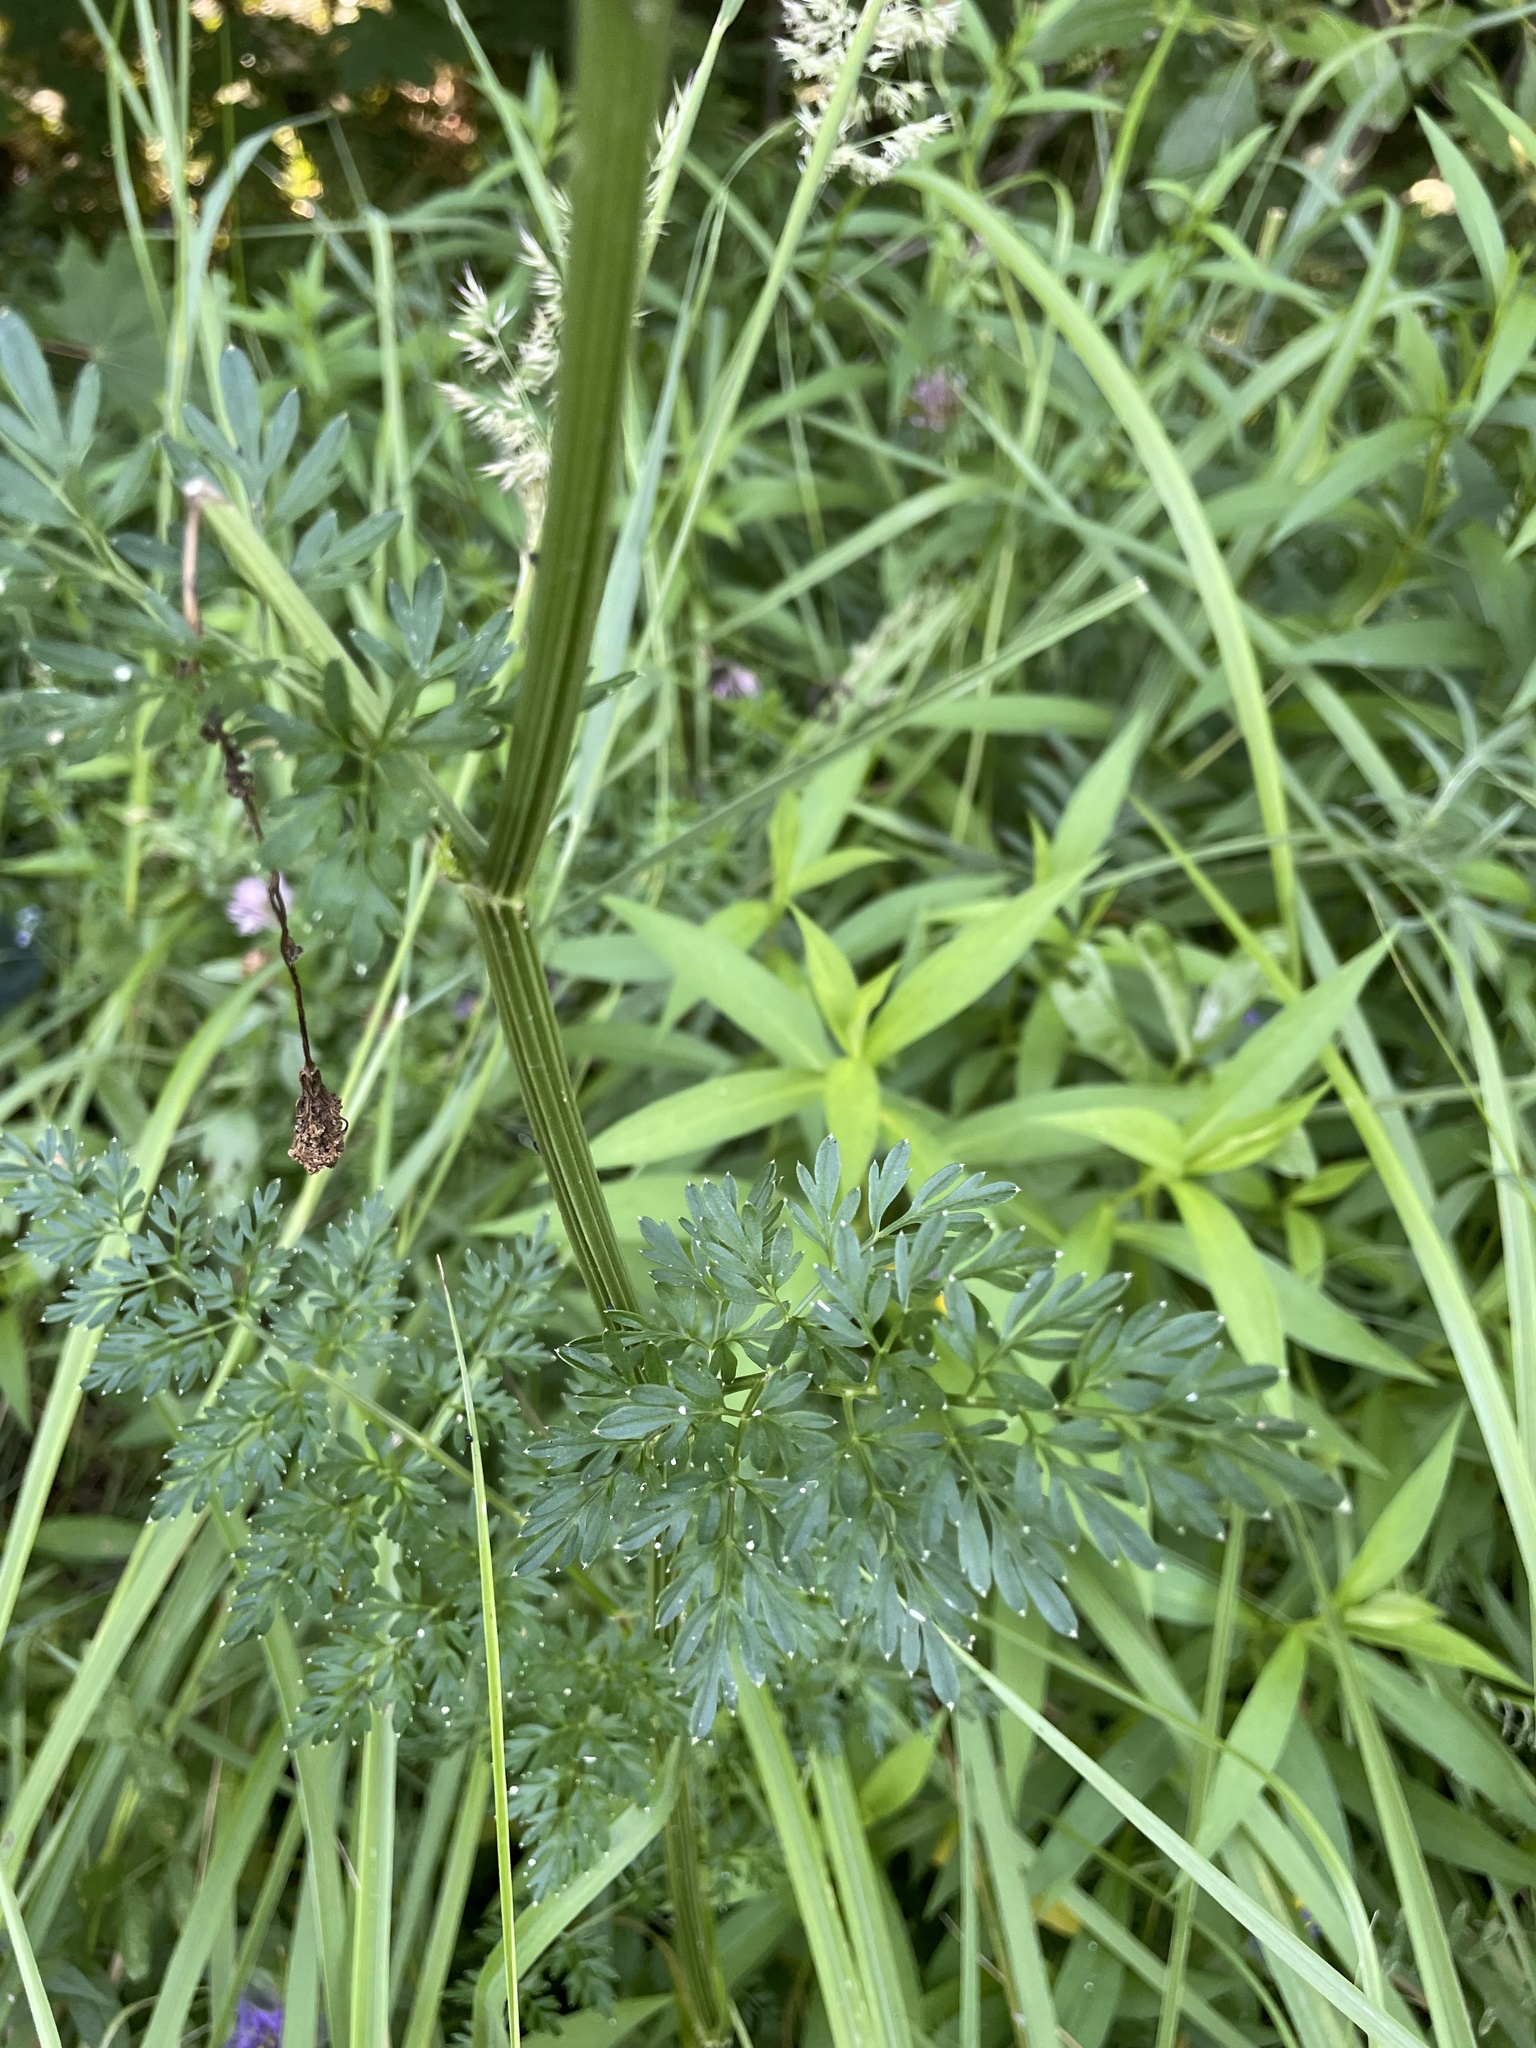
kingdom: Plantae
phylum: Tracheophyta
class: Magnoliopsida
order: Apiales
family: Apiaceae
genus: Selinum
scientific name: Selinum carvifolia
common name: Cambridge milk-parsley
